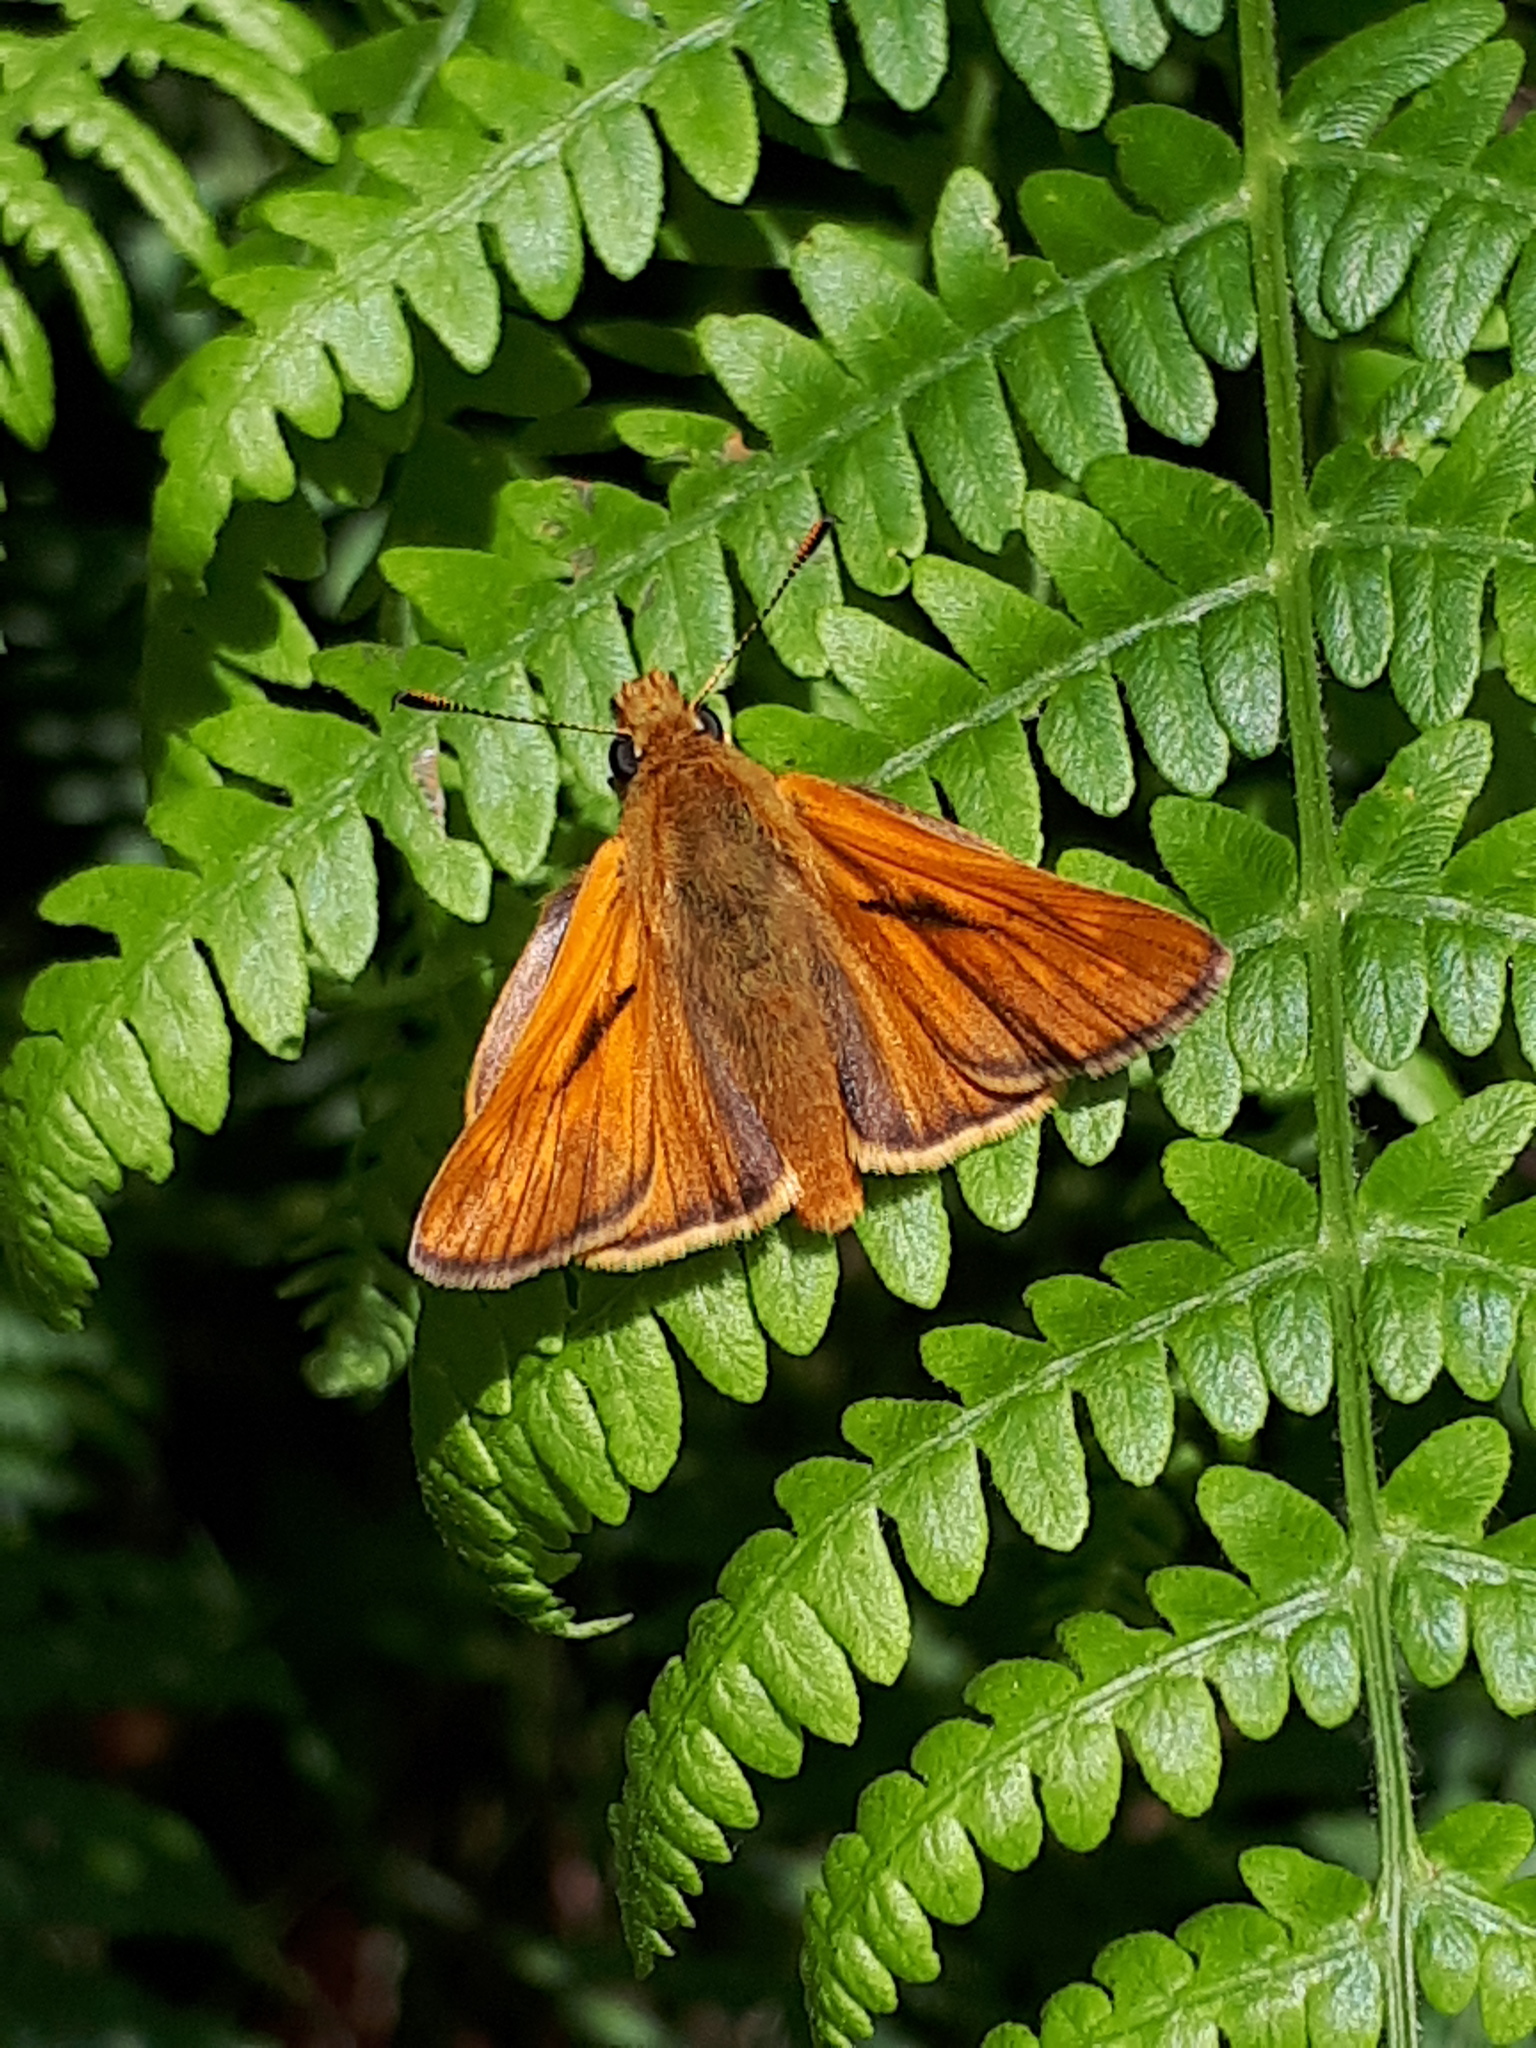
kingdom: Animalia
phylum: Arthropoda
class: Insecta
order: Lepidoptera
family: Hesperiidae
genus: Ochlodes
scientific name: Ochlodes venata
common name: Large skipper
